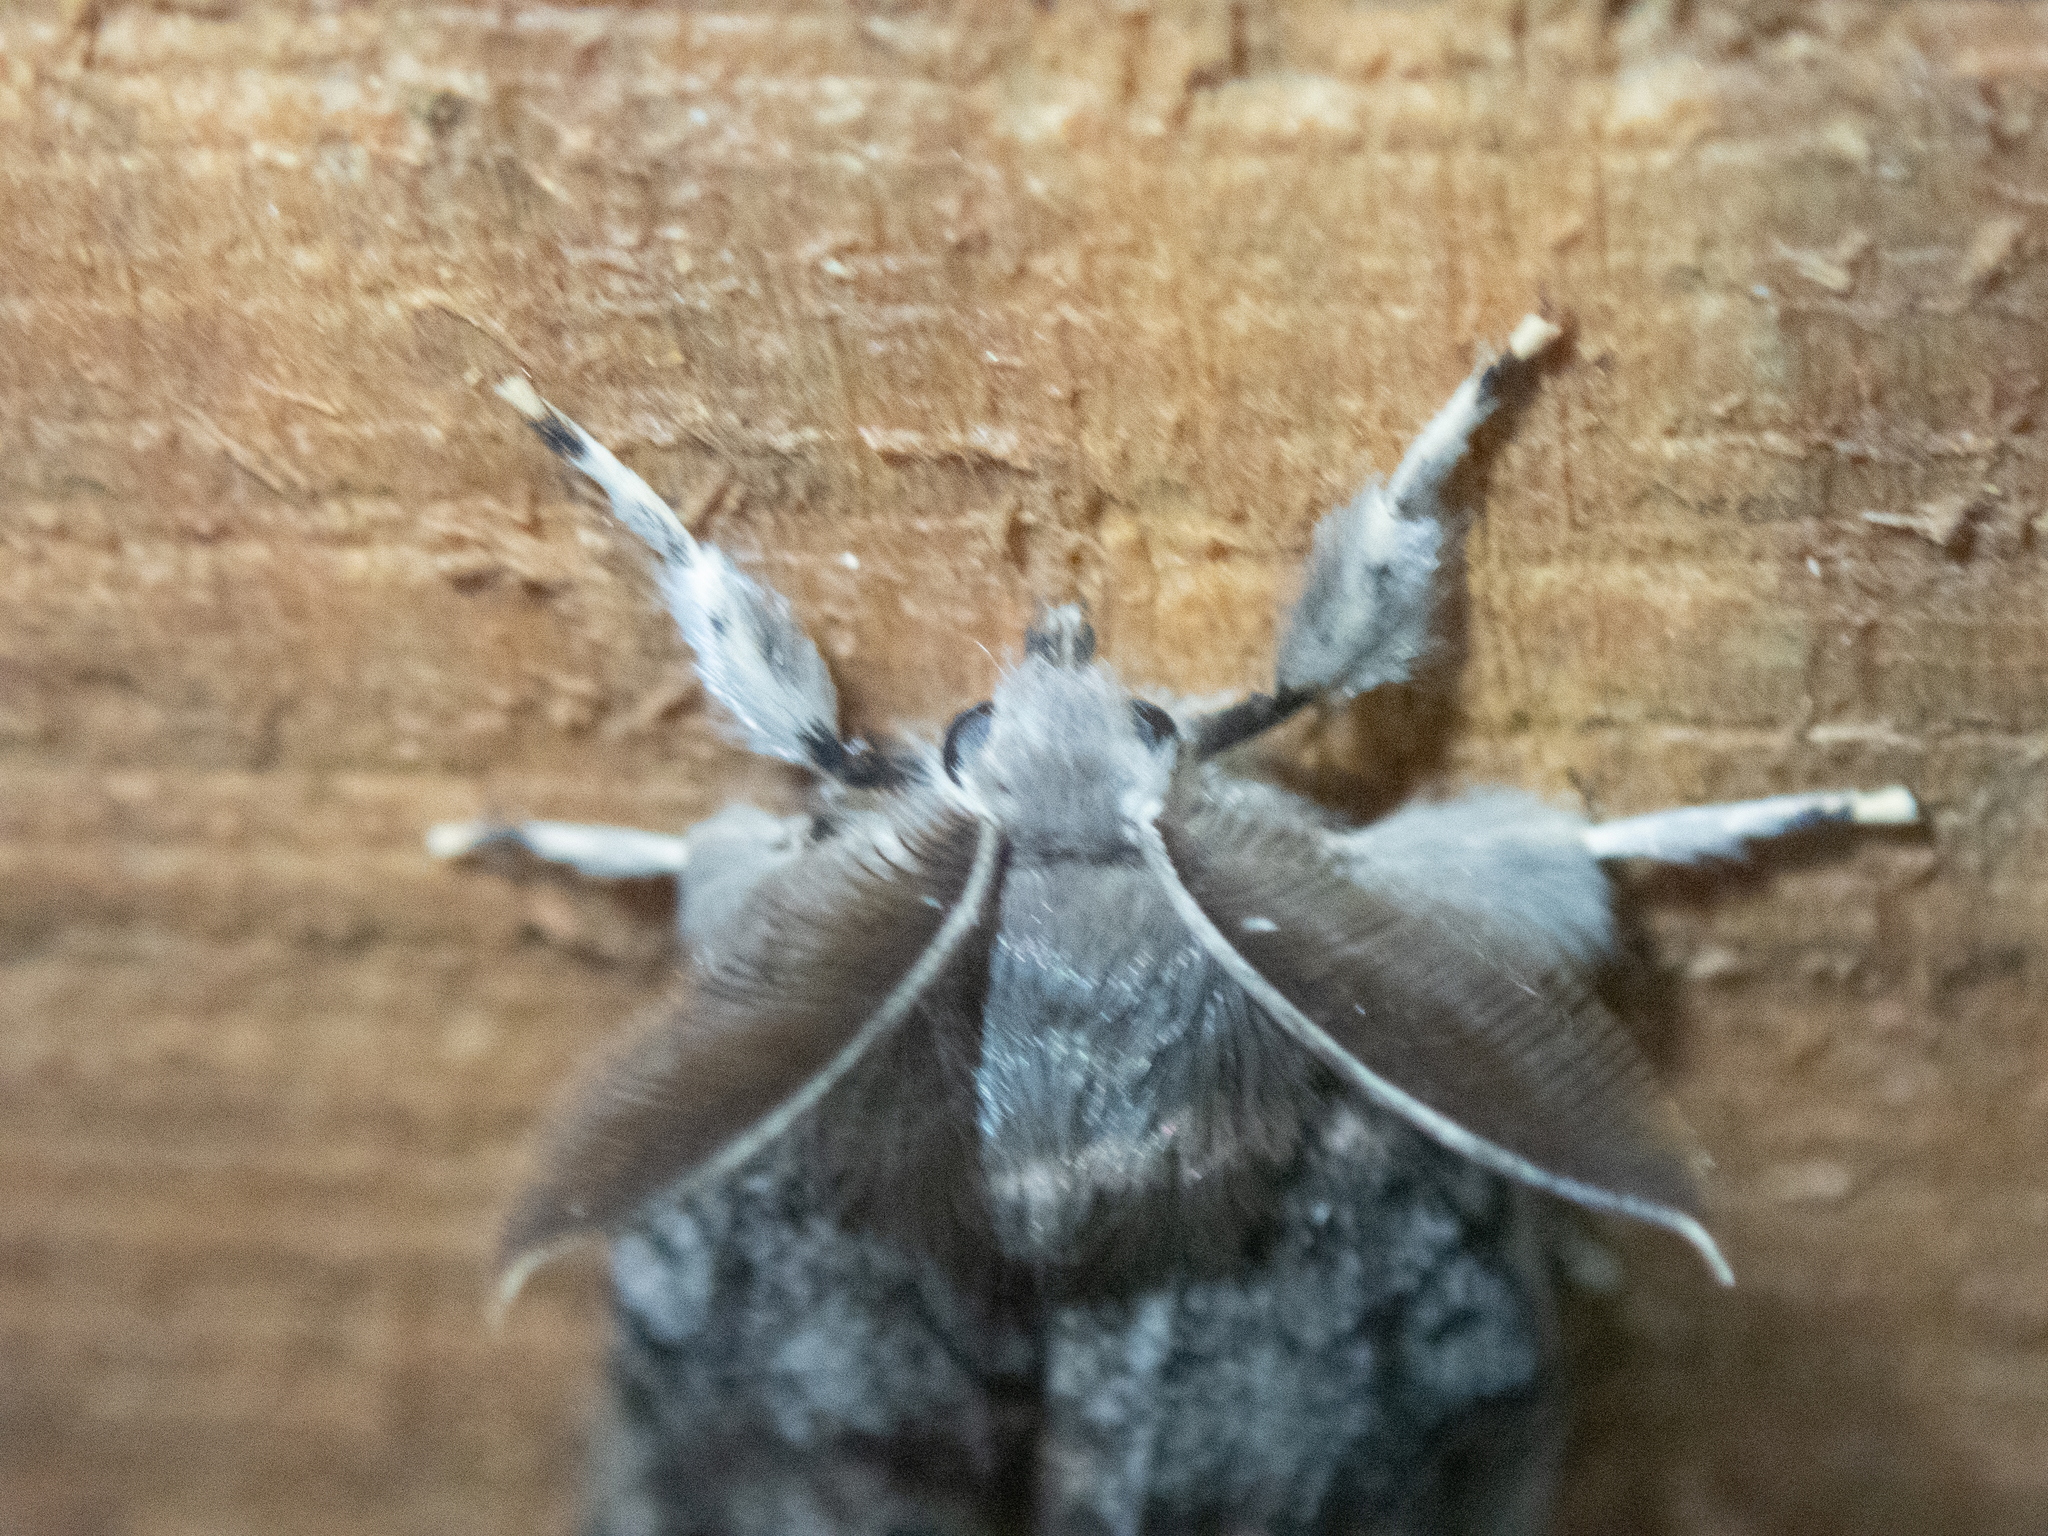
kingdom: Animalia
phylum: Arthropoda
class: Insecta
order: Lepidoptera
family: Erebidae
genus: Lymantria
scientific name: Lymantria dispar
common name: Gypsy moth
